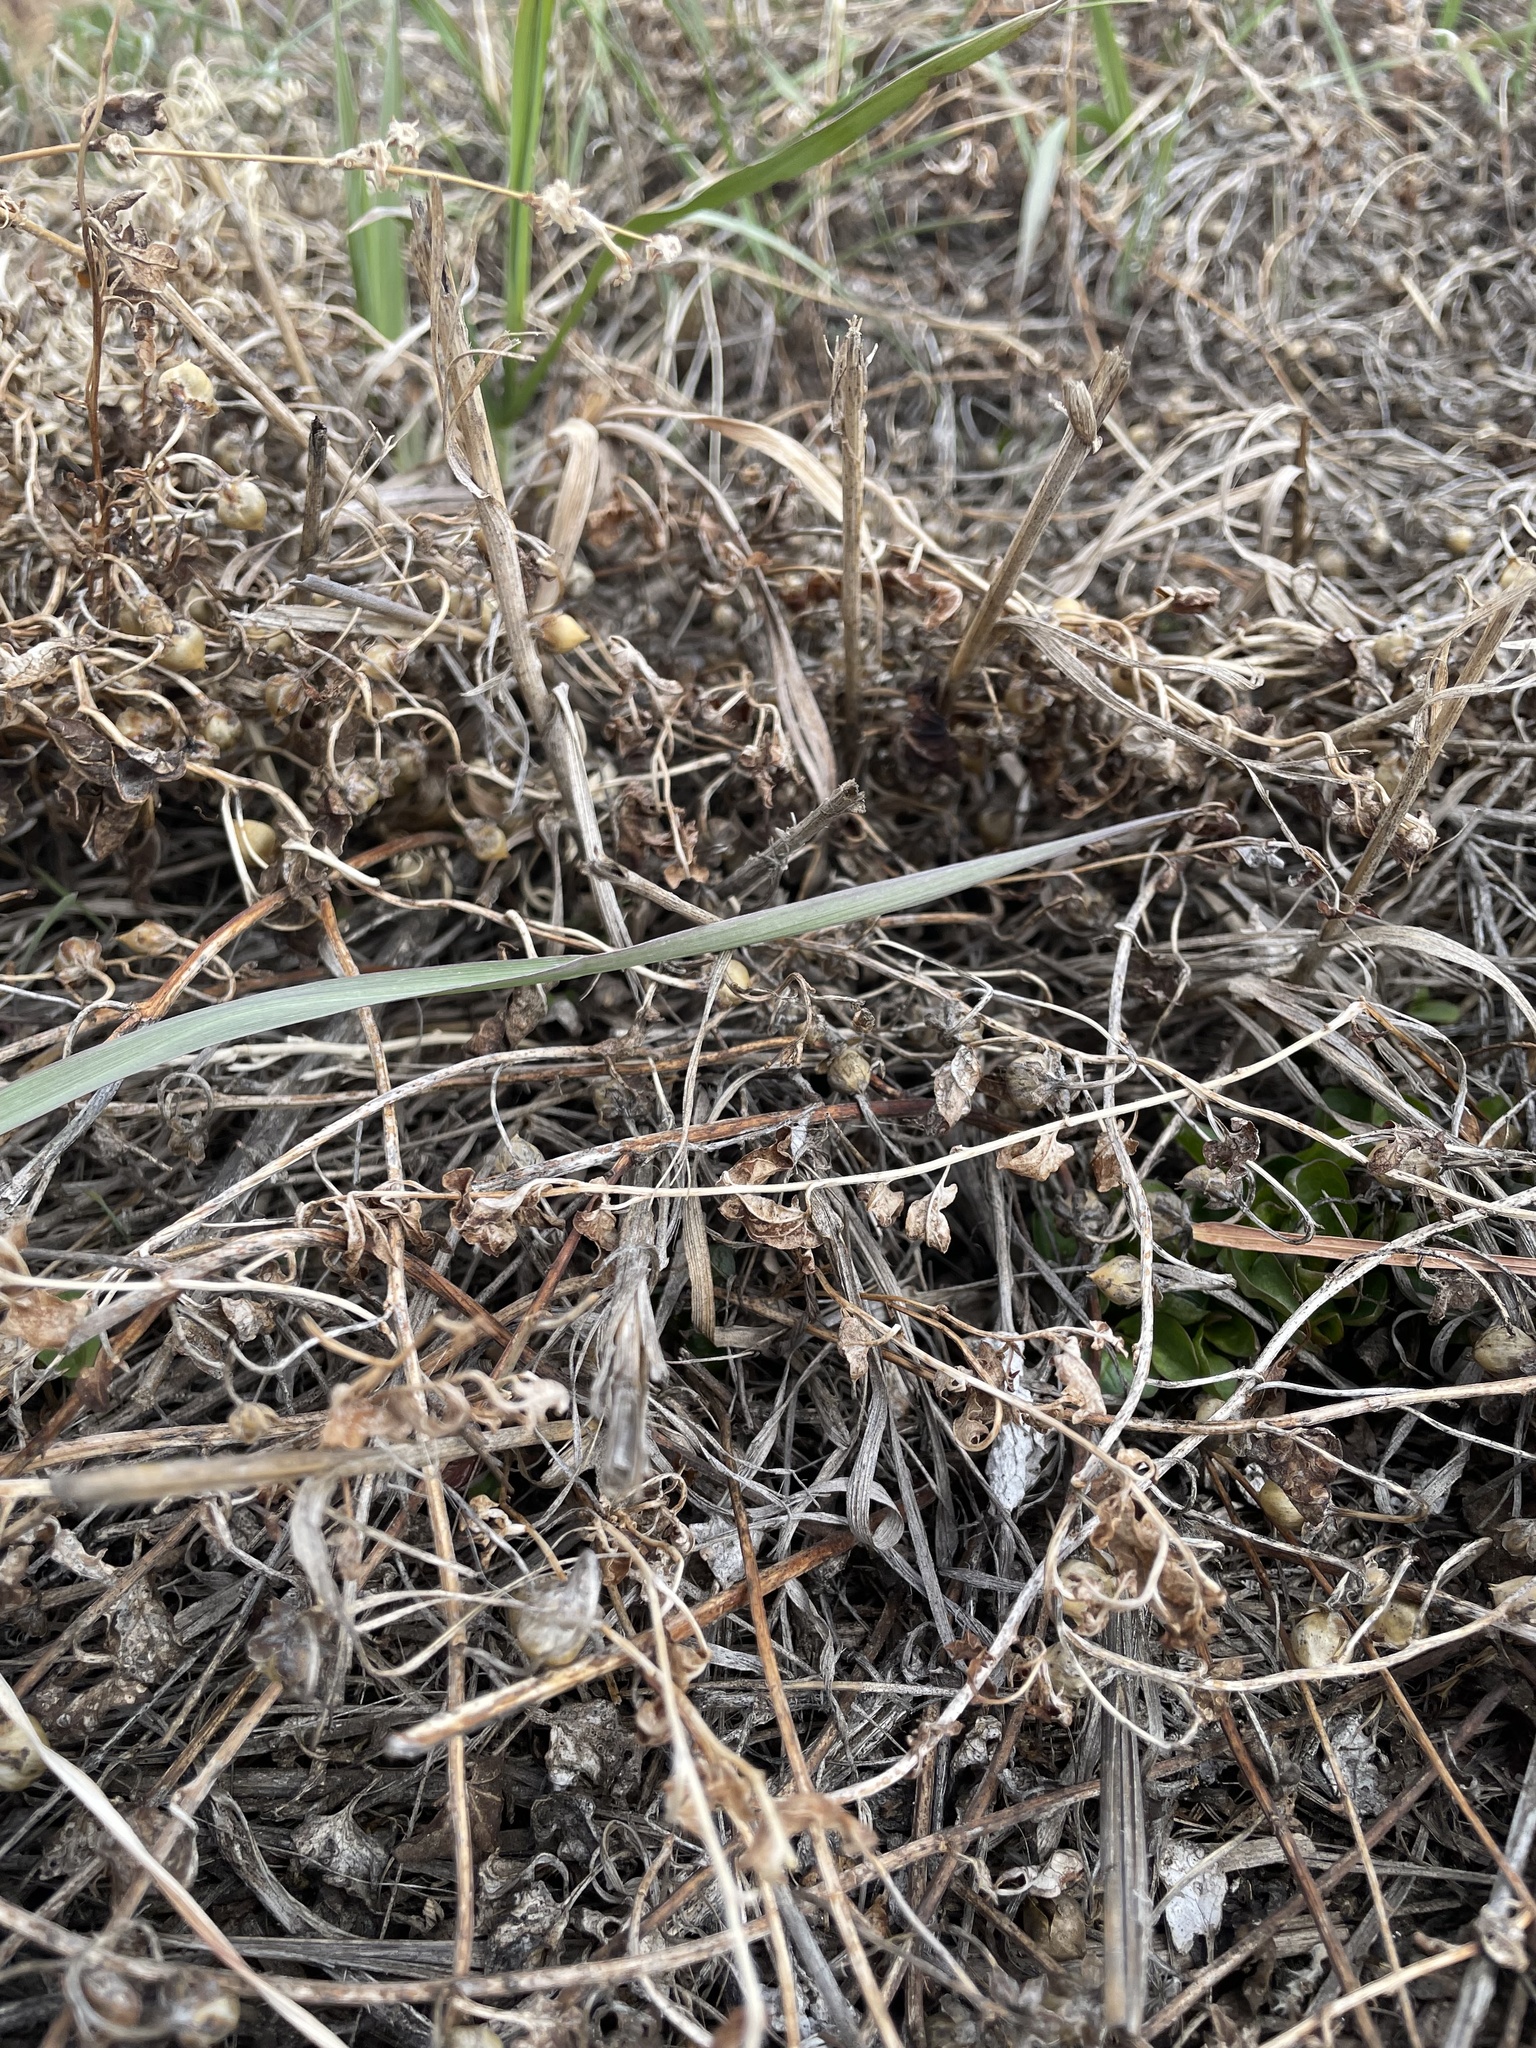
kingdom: Plantae
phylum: Tracheophyta
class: Magnoliopsida
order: Solanales
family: Convolvulaceae
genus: Convolvulus
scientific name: Convolvulus arvensis
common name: Field bindweed
